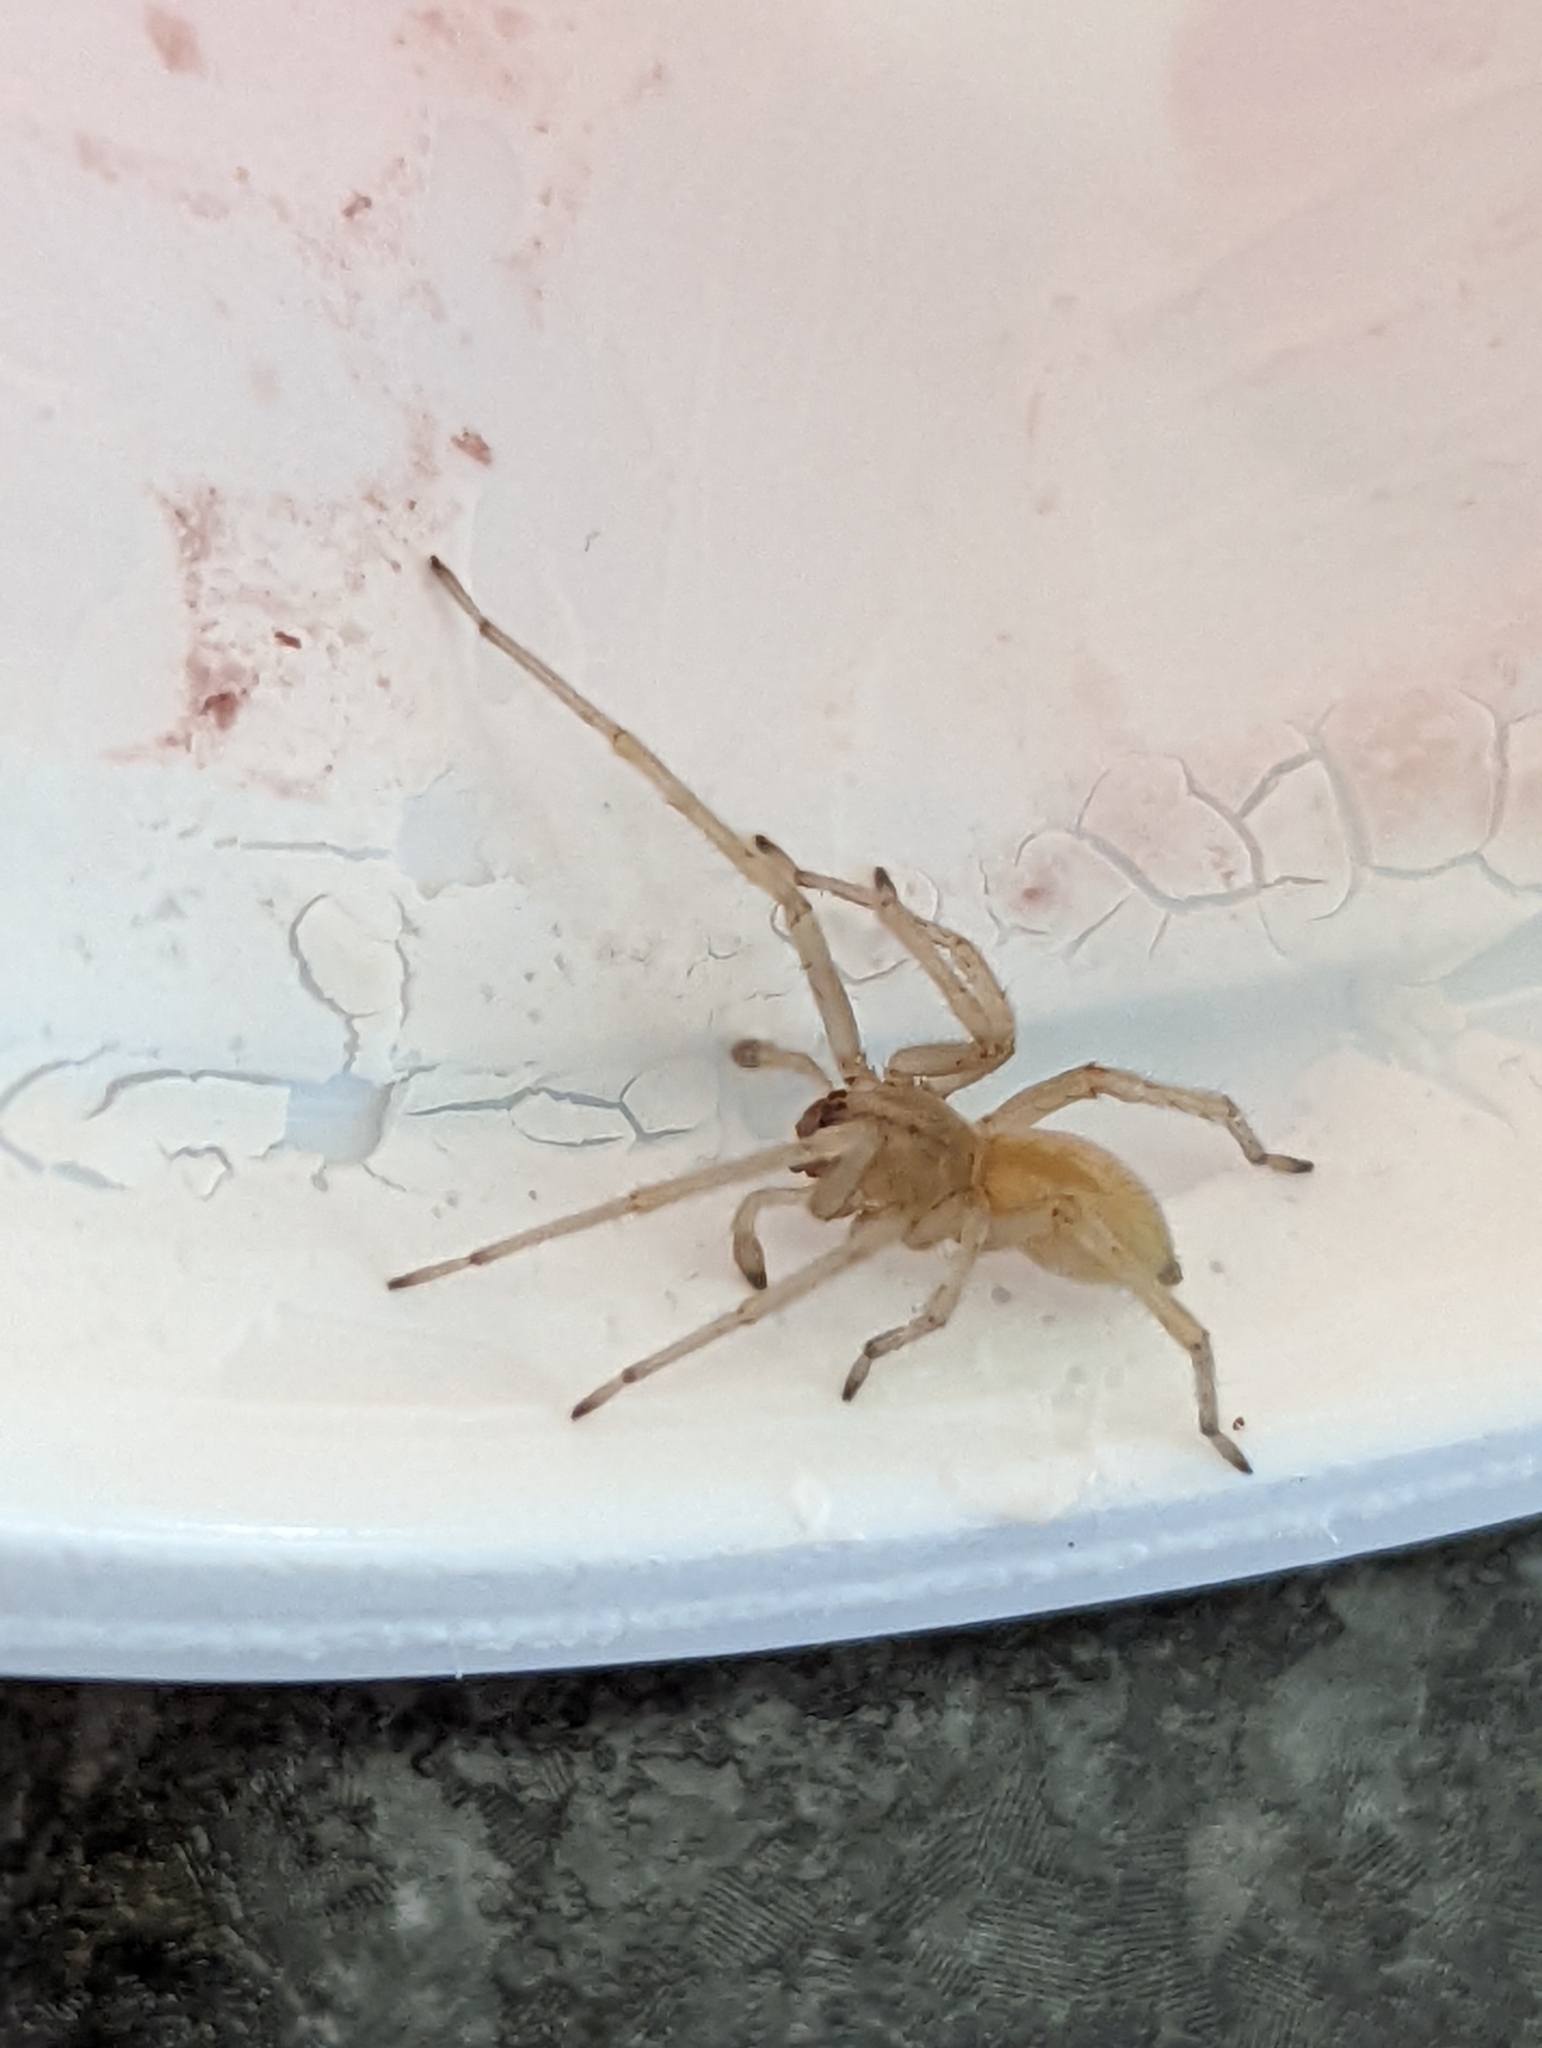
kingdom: Animalia
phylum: Arthropoda
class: Arachnida
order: Araneae
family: Cheiracanthiidae
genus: Cheiracanthium
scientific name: Cheiracanthium mildei
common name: Northern yellow sac spider
